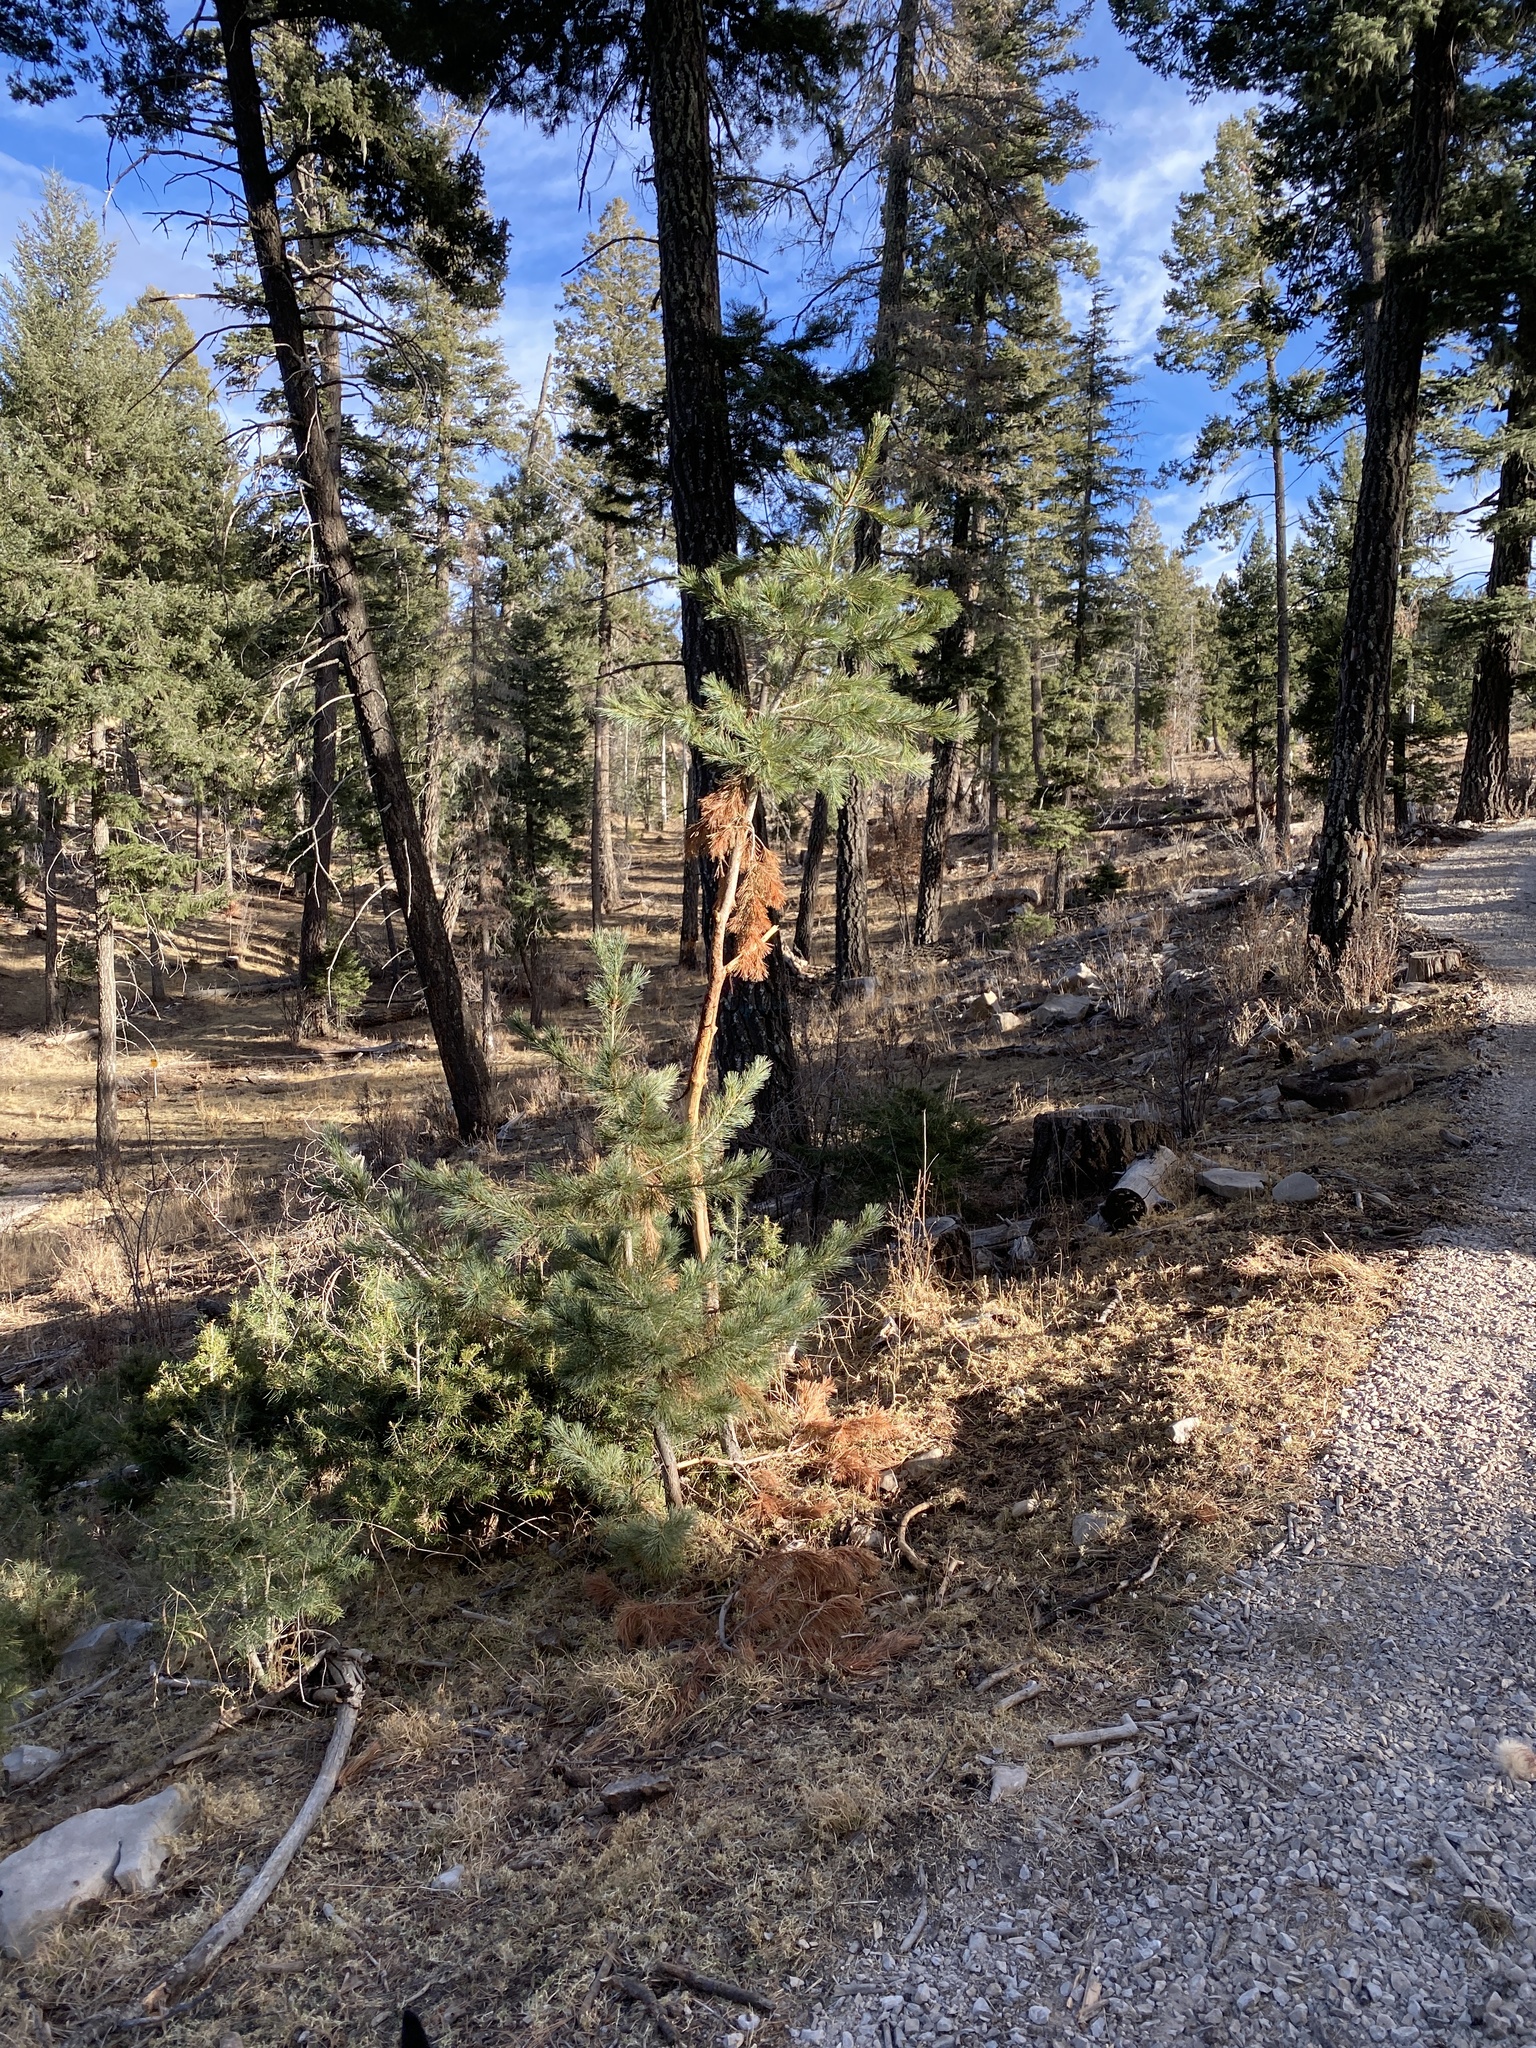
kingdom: Plantae
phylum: Tracheophyta
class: Pinopsida
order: Pinales
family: Pinaceae
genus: Pinus
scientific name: Pinus strobiformis
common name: Southwestern white pine
